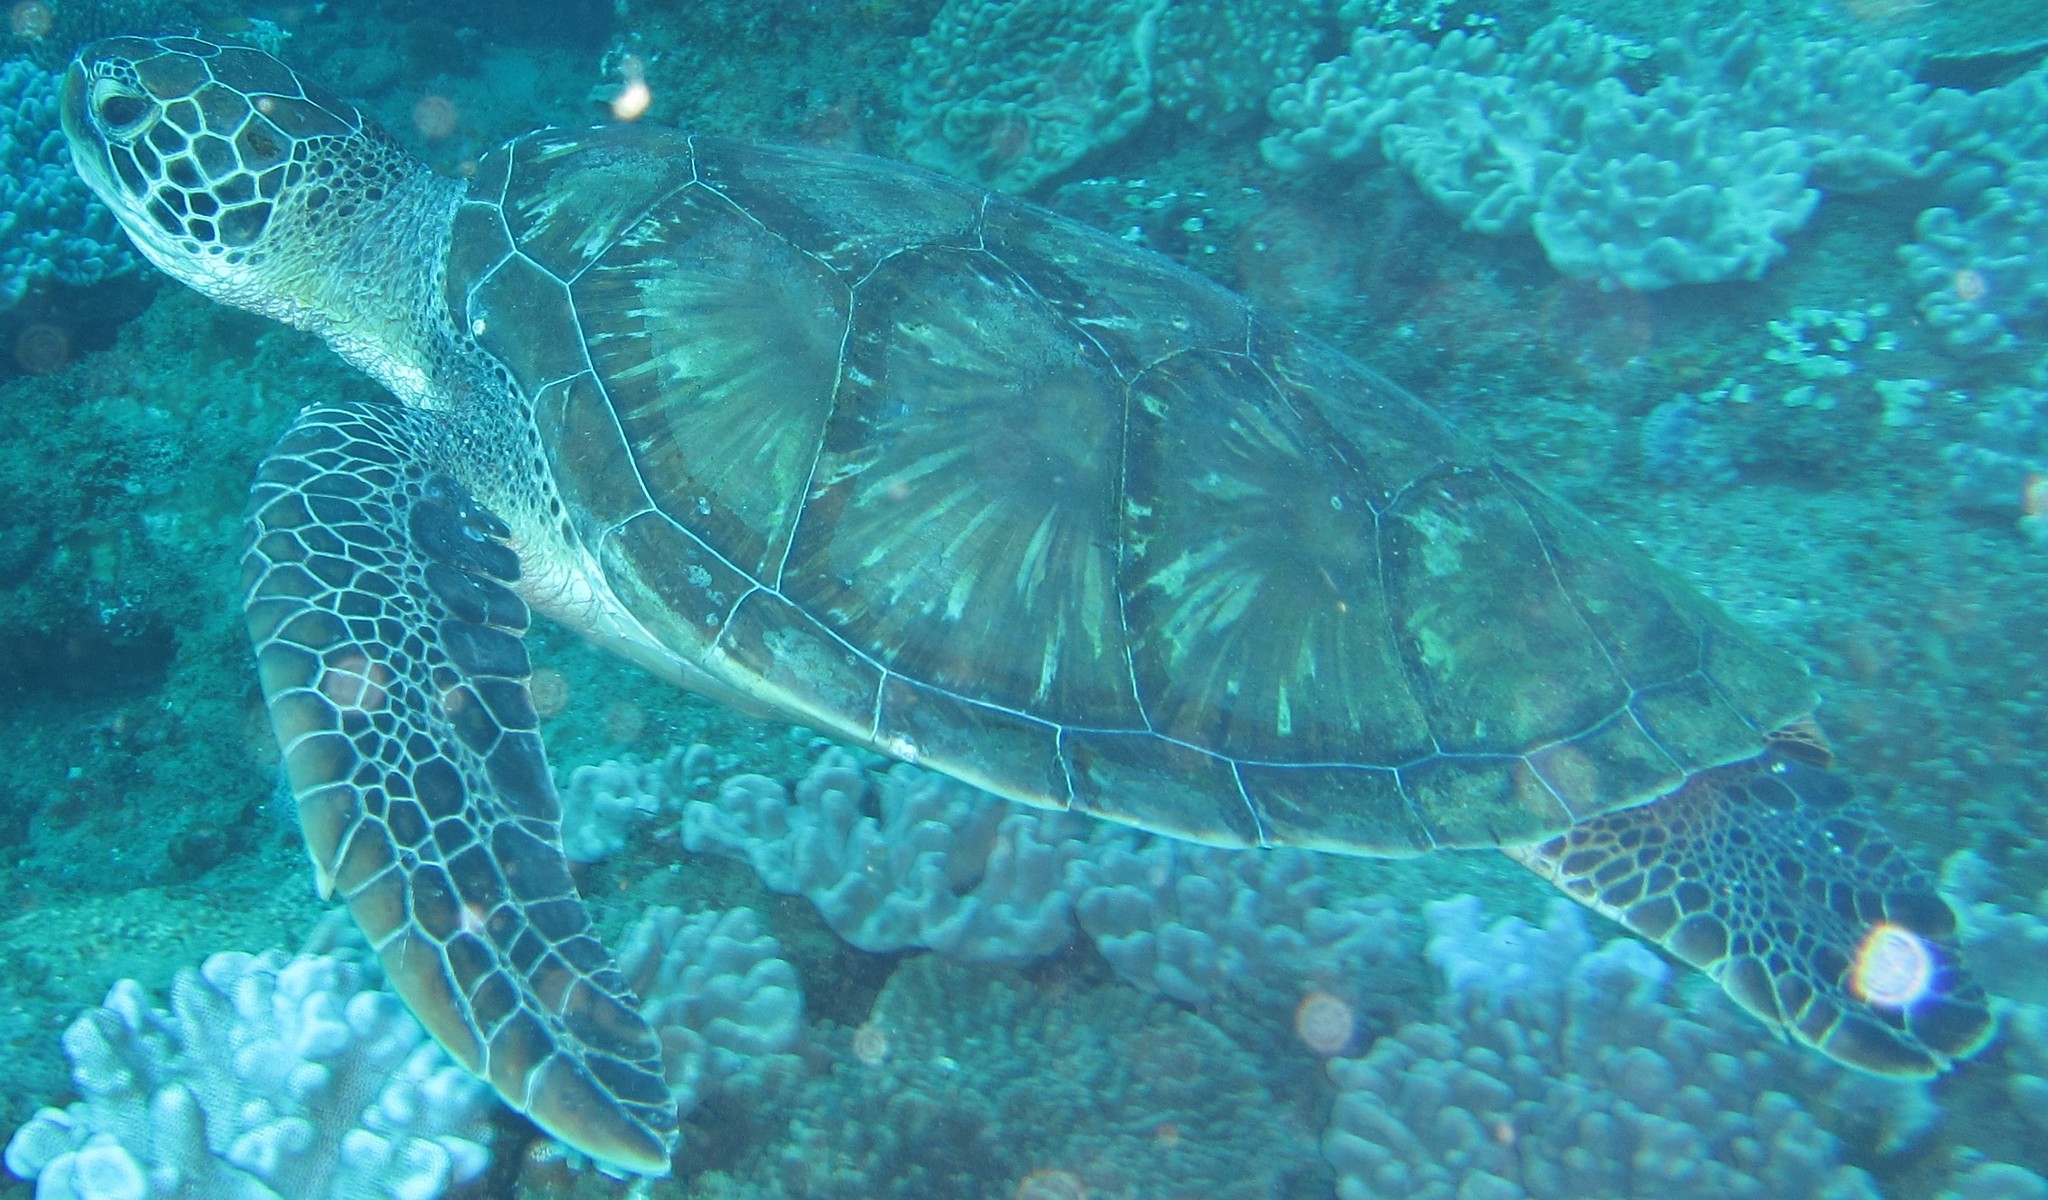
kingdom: Animalia
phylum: Chordata
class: Testudines
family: Cheloniidae
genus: Chelonia
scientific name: Chelonia mydas
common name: Green turtle
